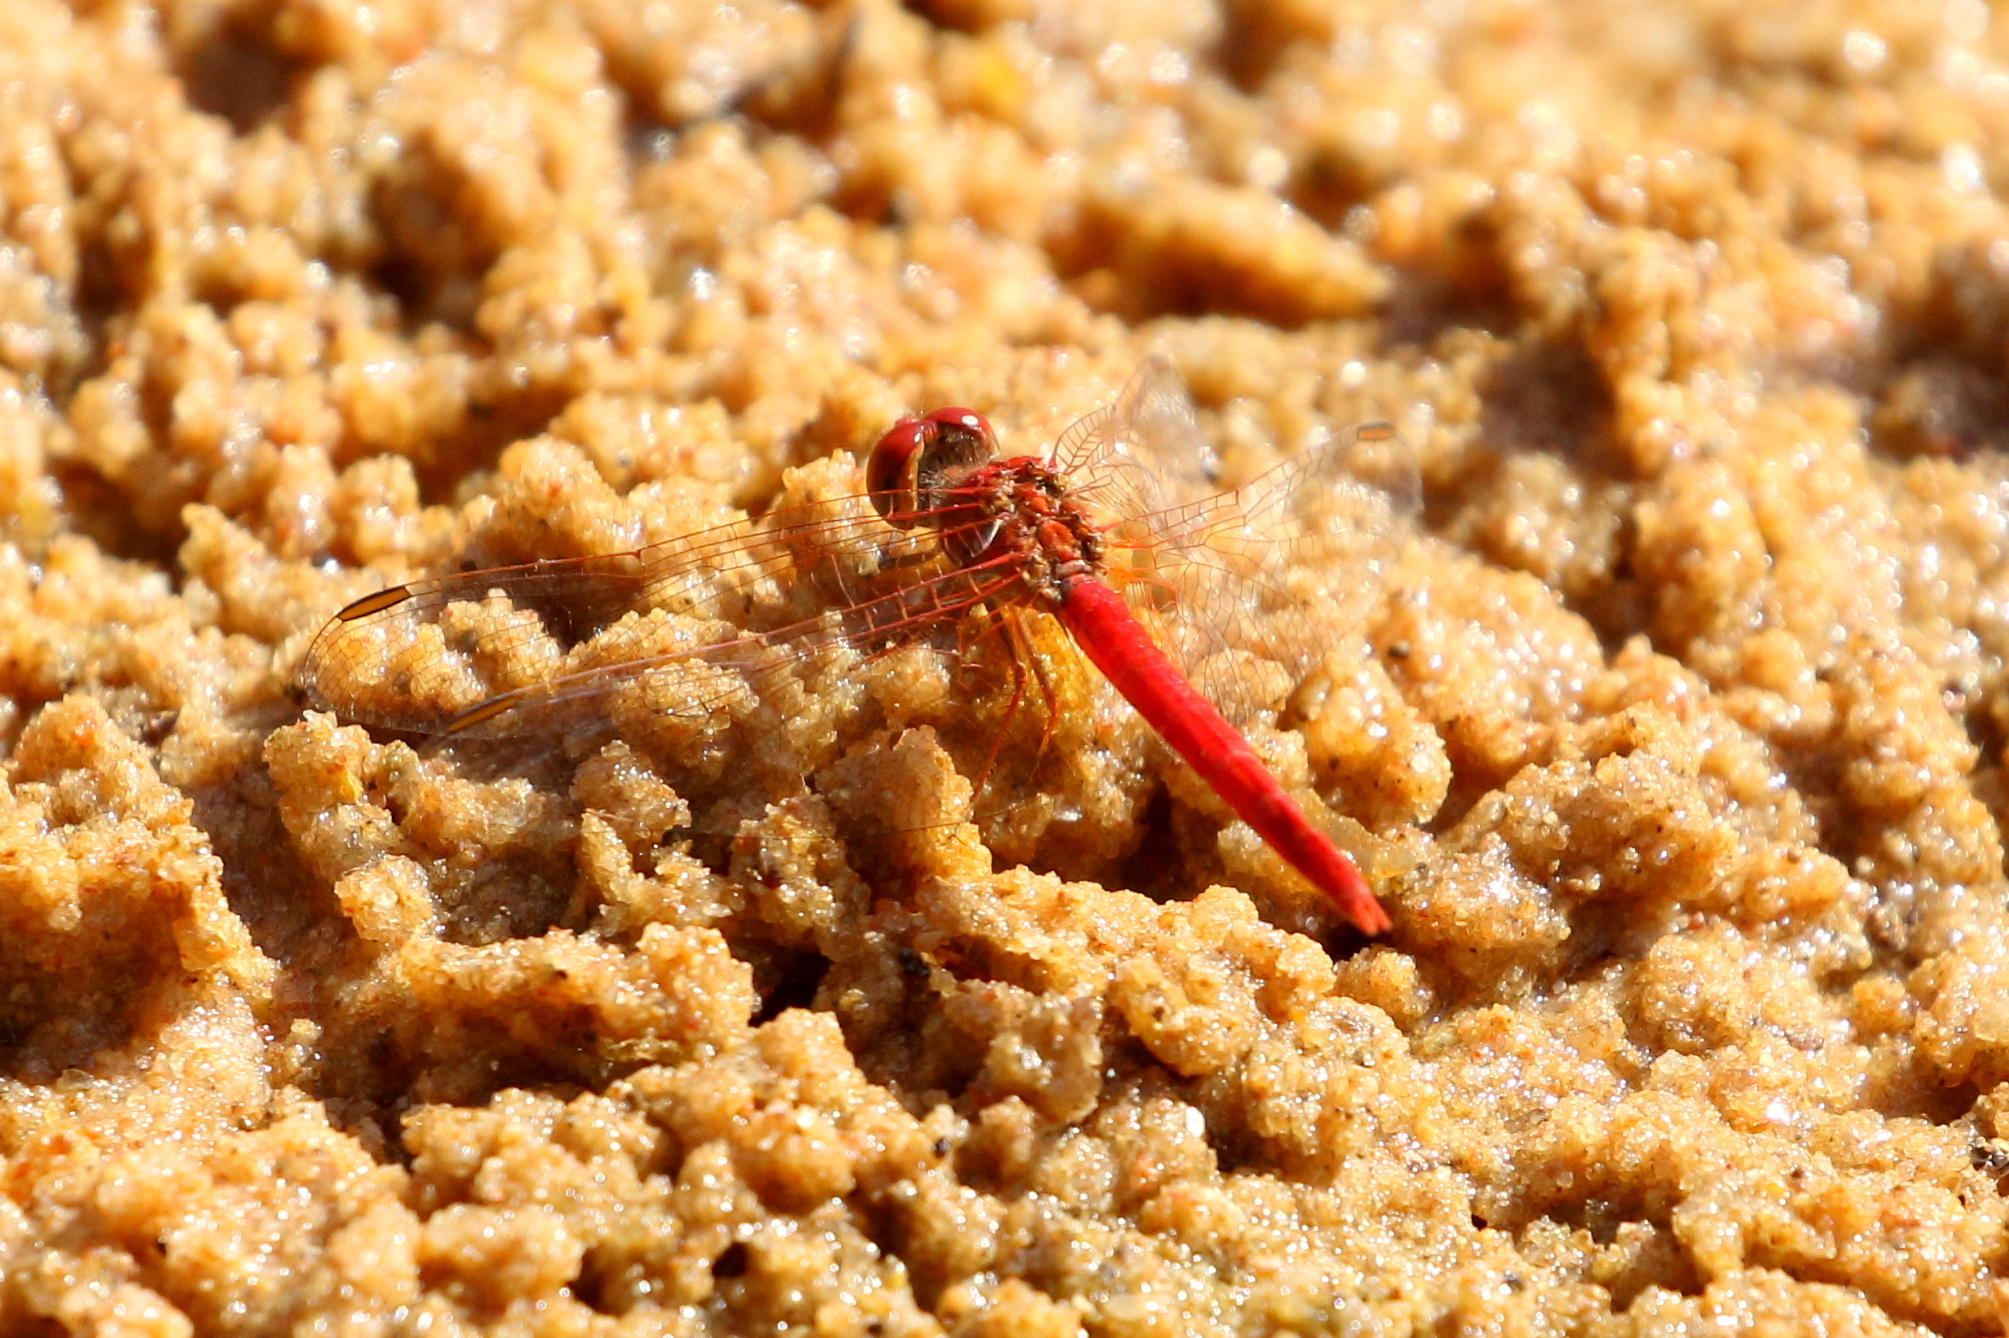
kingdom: Animalia
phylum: Arthropoda
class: Insecta
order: Odonata
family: Libellulidae
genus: Diplacodes
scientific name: Diplacodes haematodes
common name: Scarlet percher
